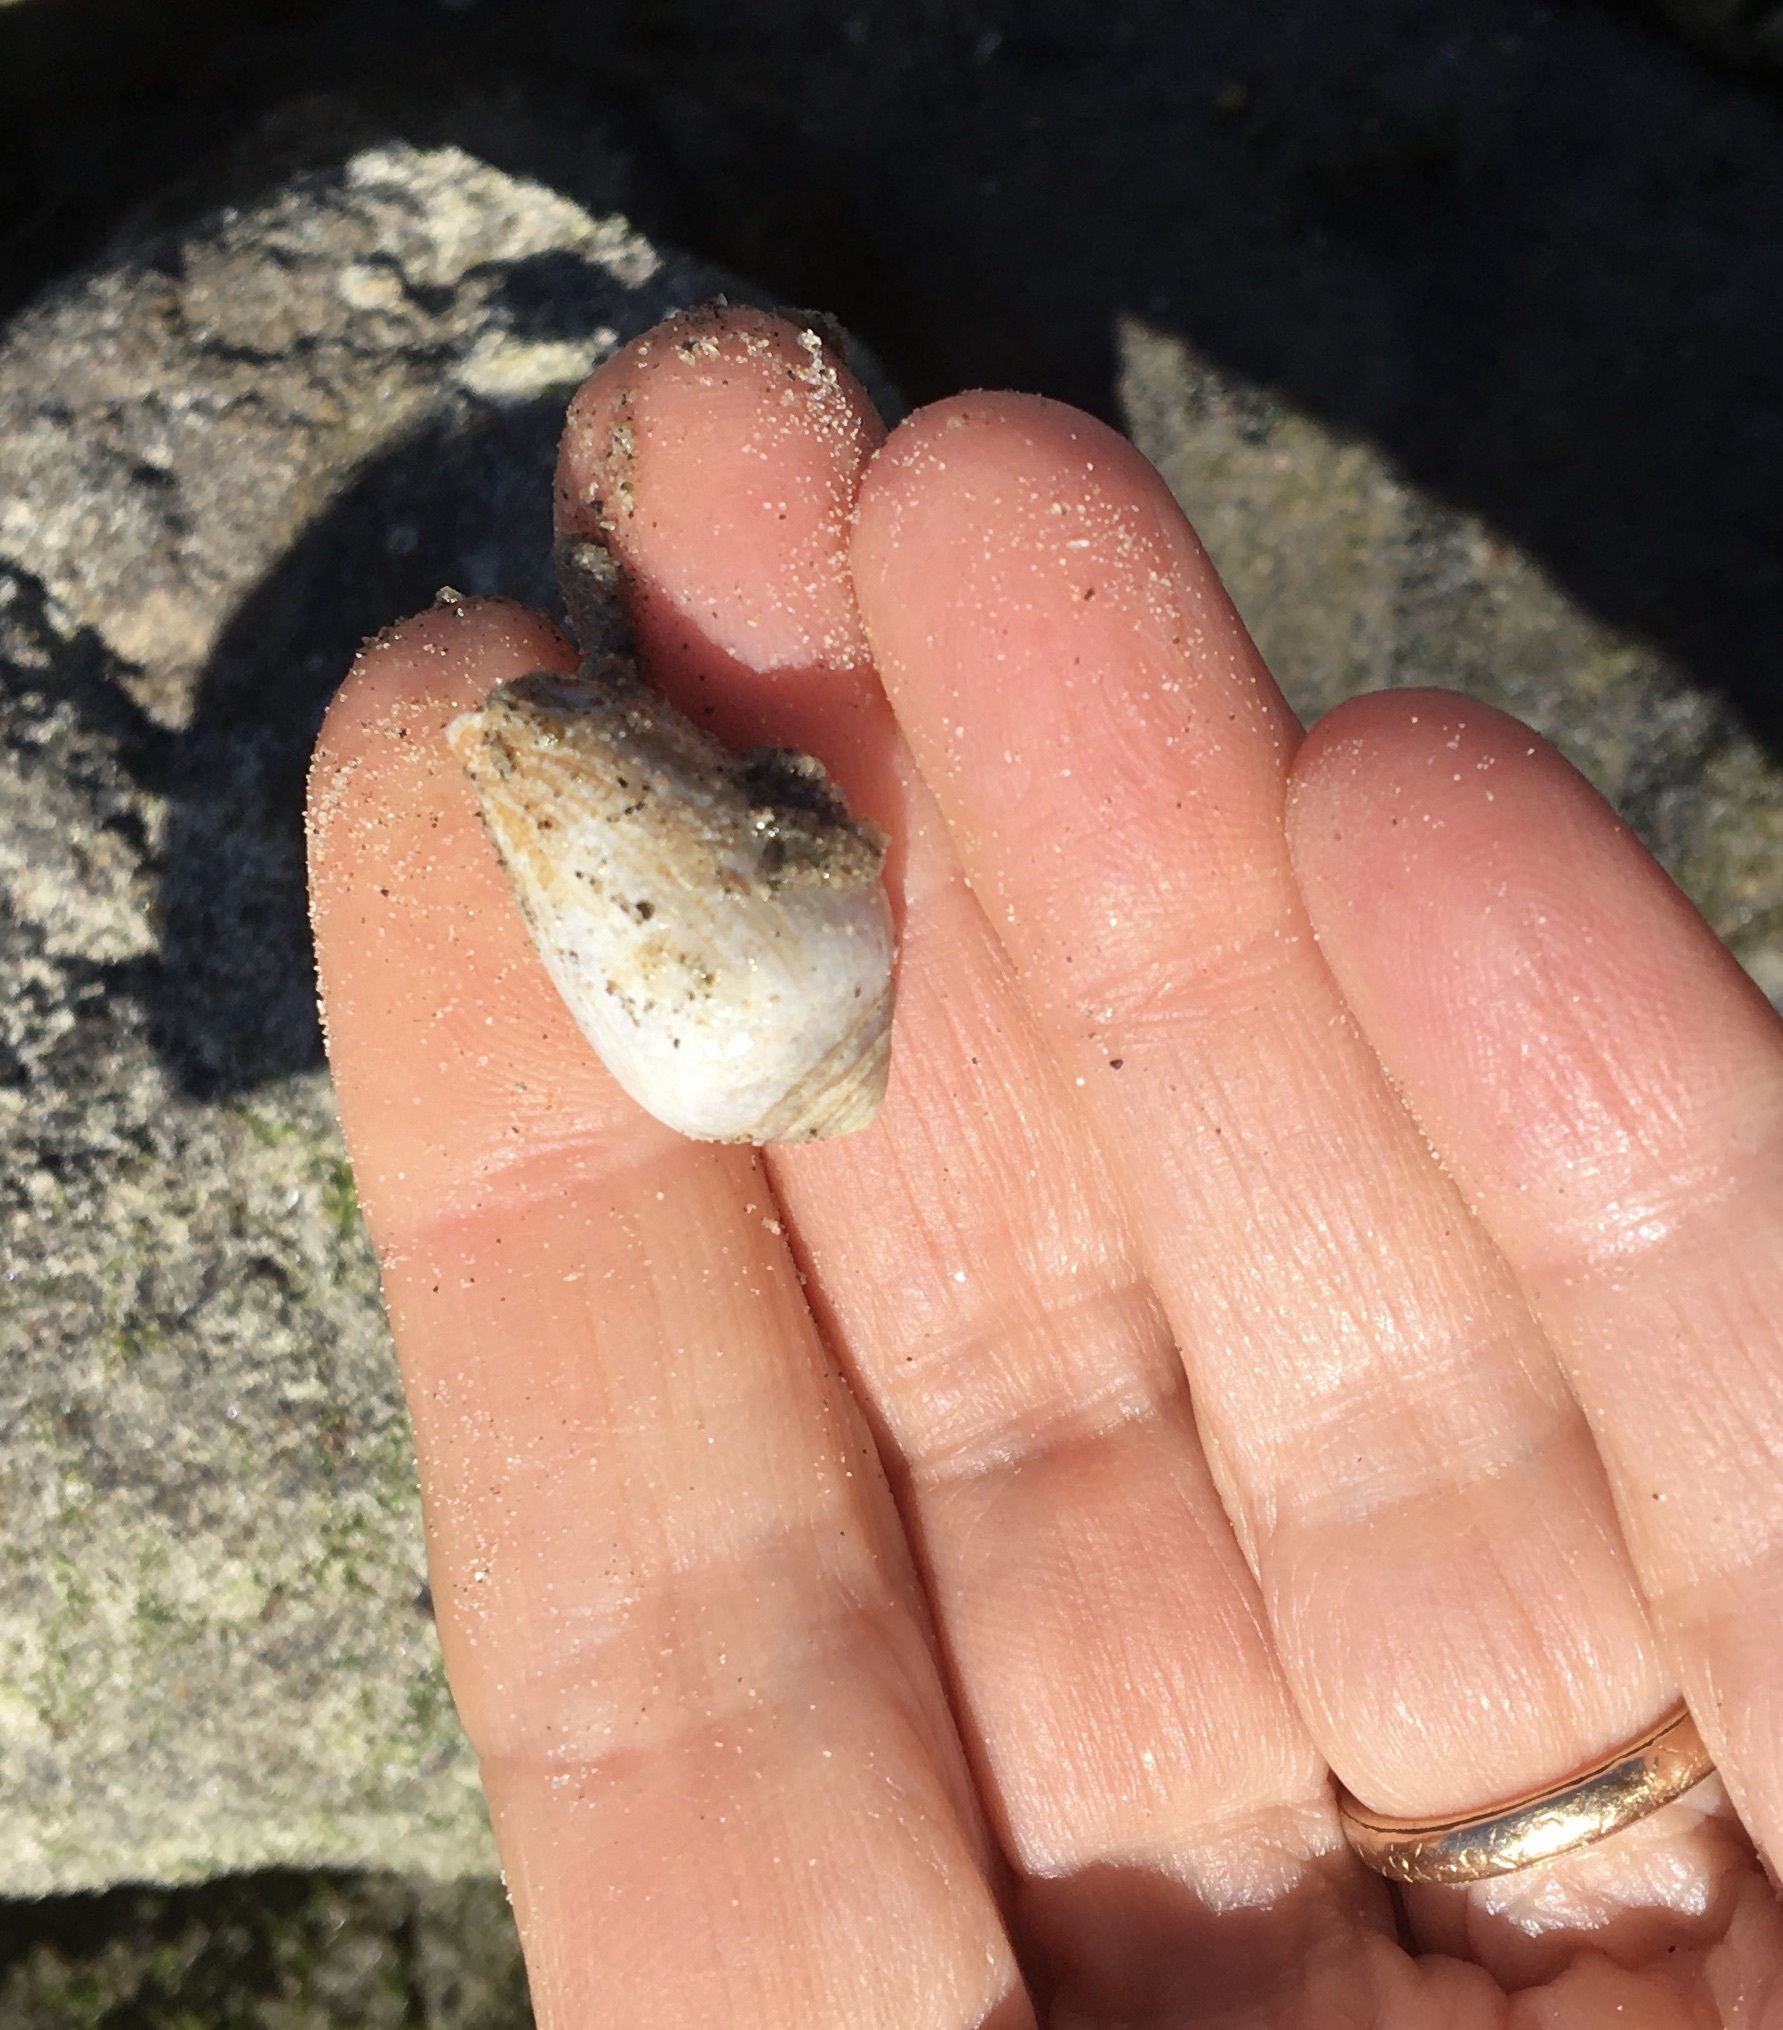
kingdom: Animalia
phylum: Mollusca
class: Gastropoda
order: Neogastropoda
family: Conidae
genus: Californiconus
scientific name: Californiconus californicus
